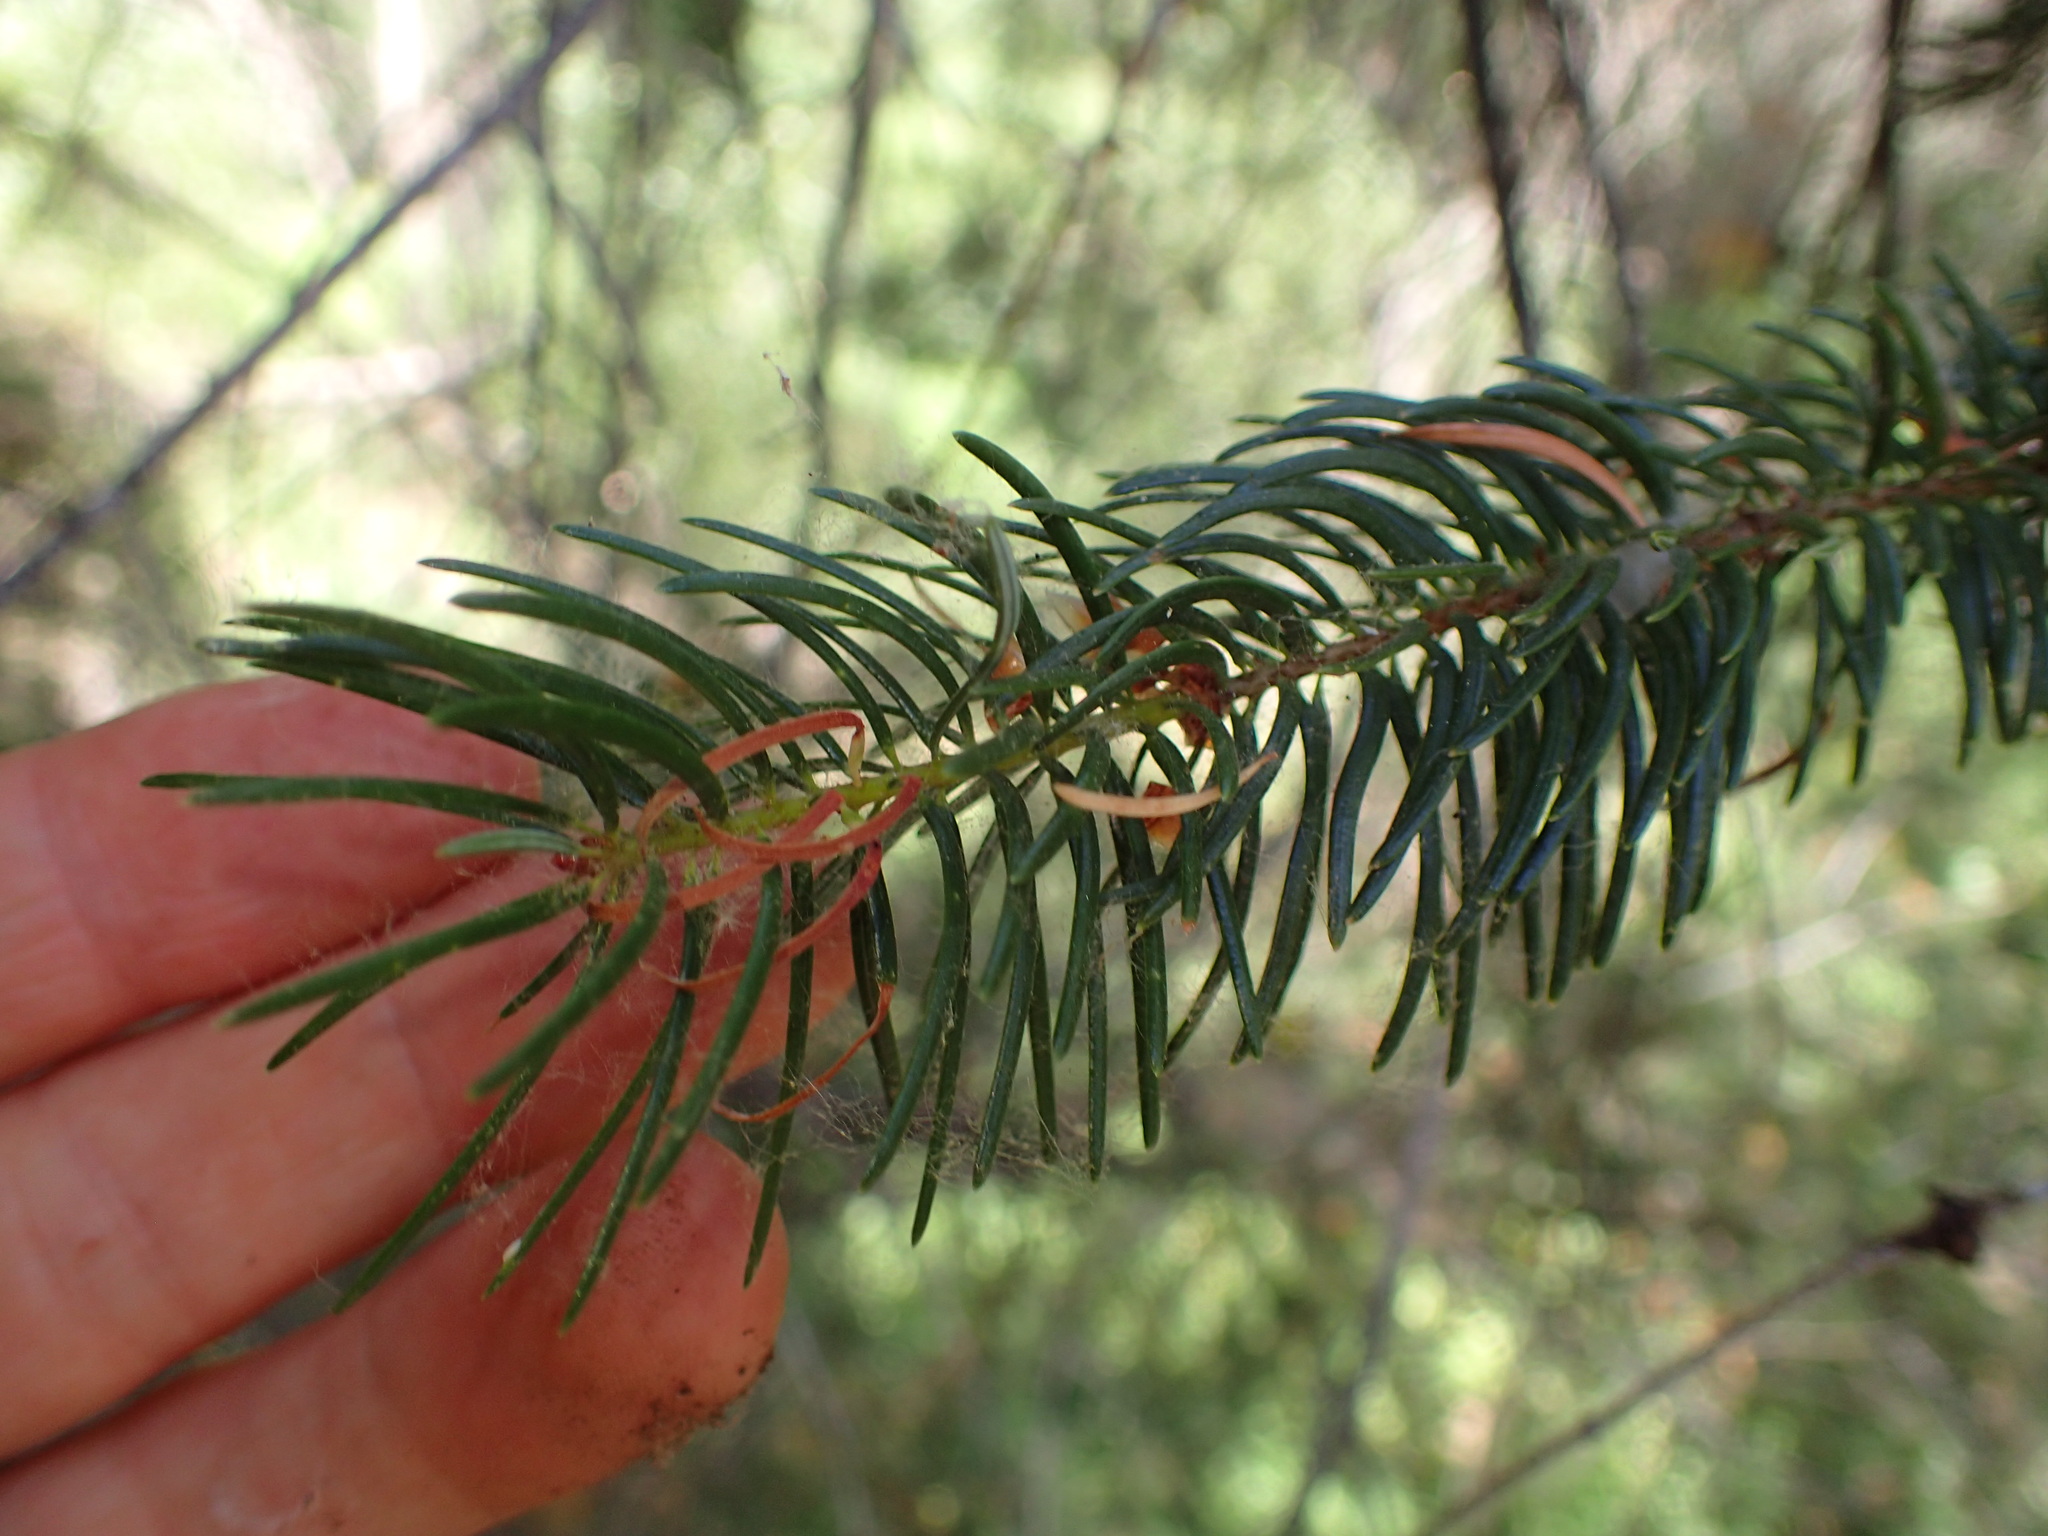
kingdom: Plantae
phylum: Tracheophyta
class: Pinopsida
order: Pinales
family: Pinaceae
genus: Pseudotsuga
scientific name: Pseudotsuga macrocarpa
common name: Big-cone douglas-fir
